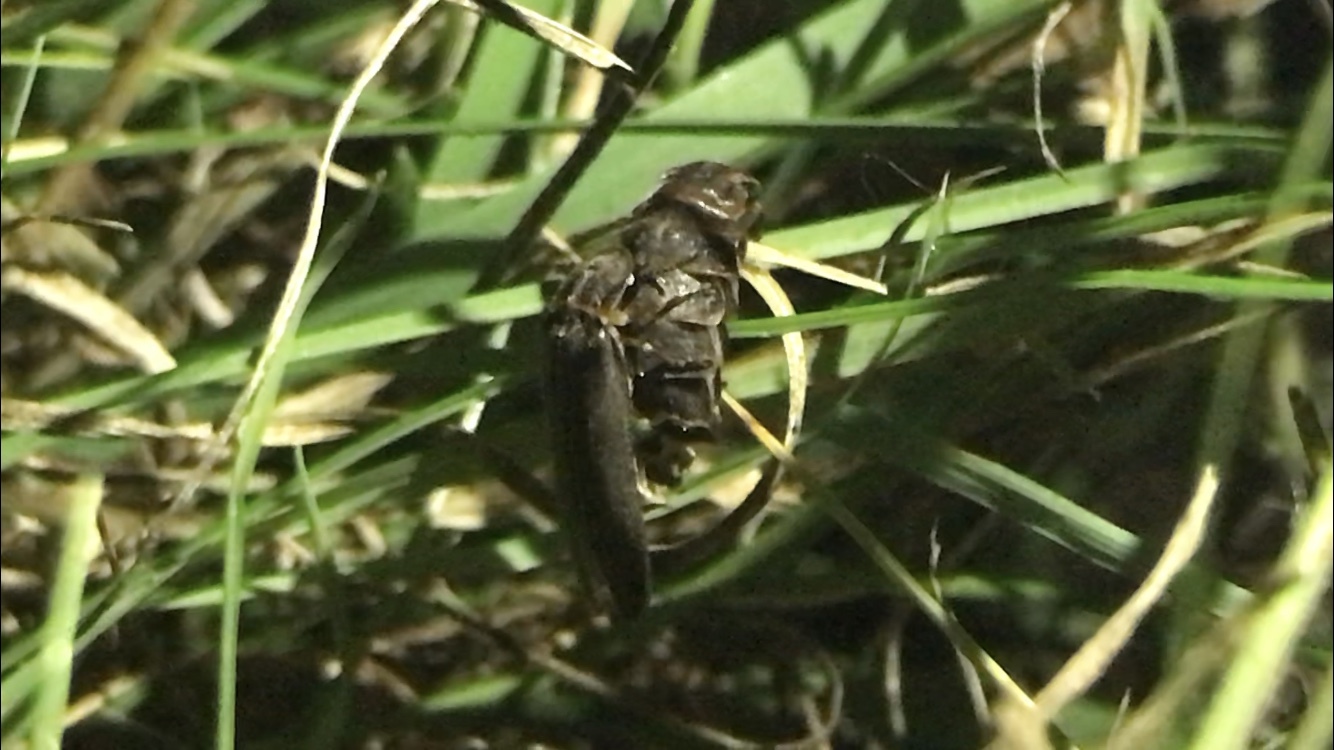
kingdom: Animalia
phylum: Arthropoda
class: Insecta
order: Coleoptera
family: Lampyridae
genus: Lampyris
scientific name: Lampyris noctiluca
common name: Glow-worm
